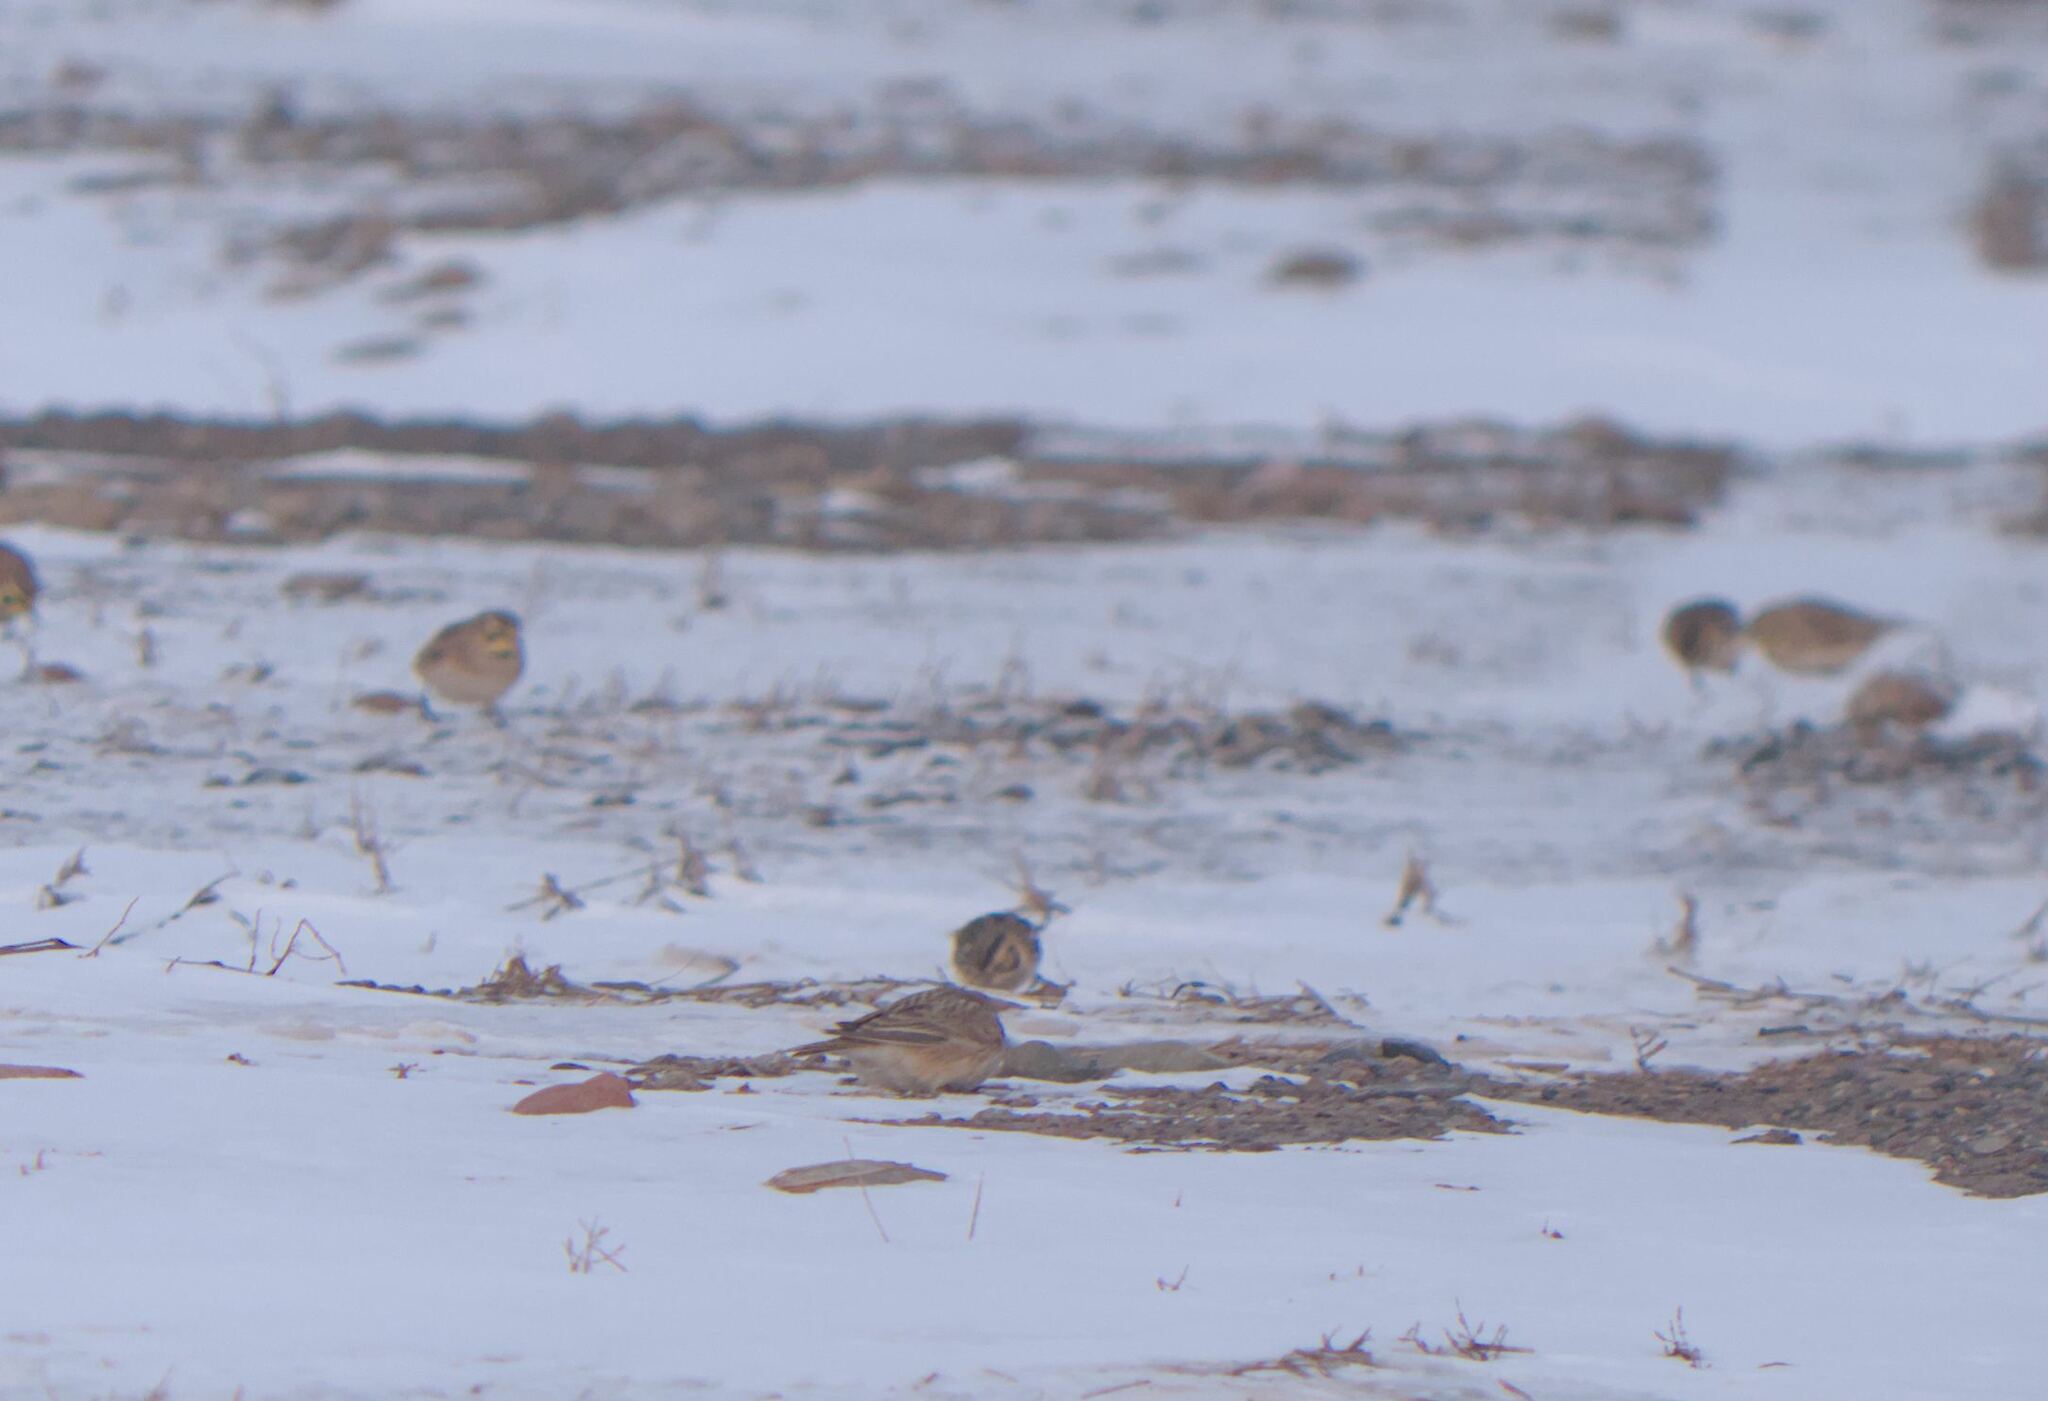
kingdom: Animalia
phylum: Chordata
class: Aves
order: Passeriformes
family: Calcariidae
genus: Calcarius
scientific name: Calcarius lapponicus
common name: Lapland longspur
